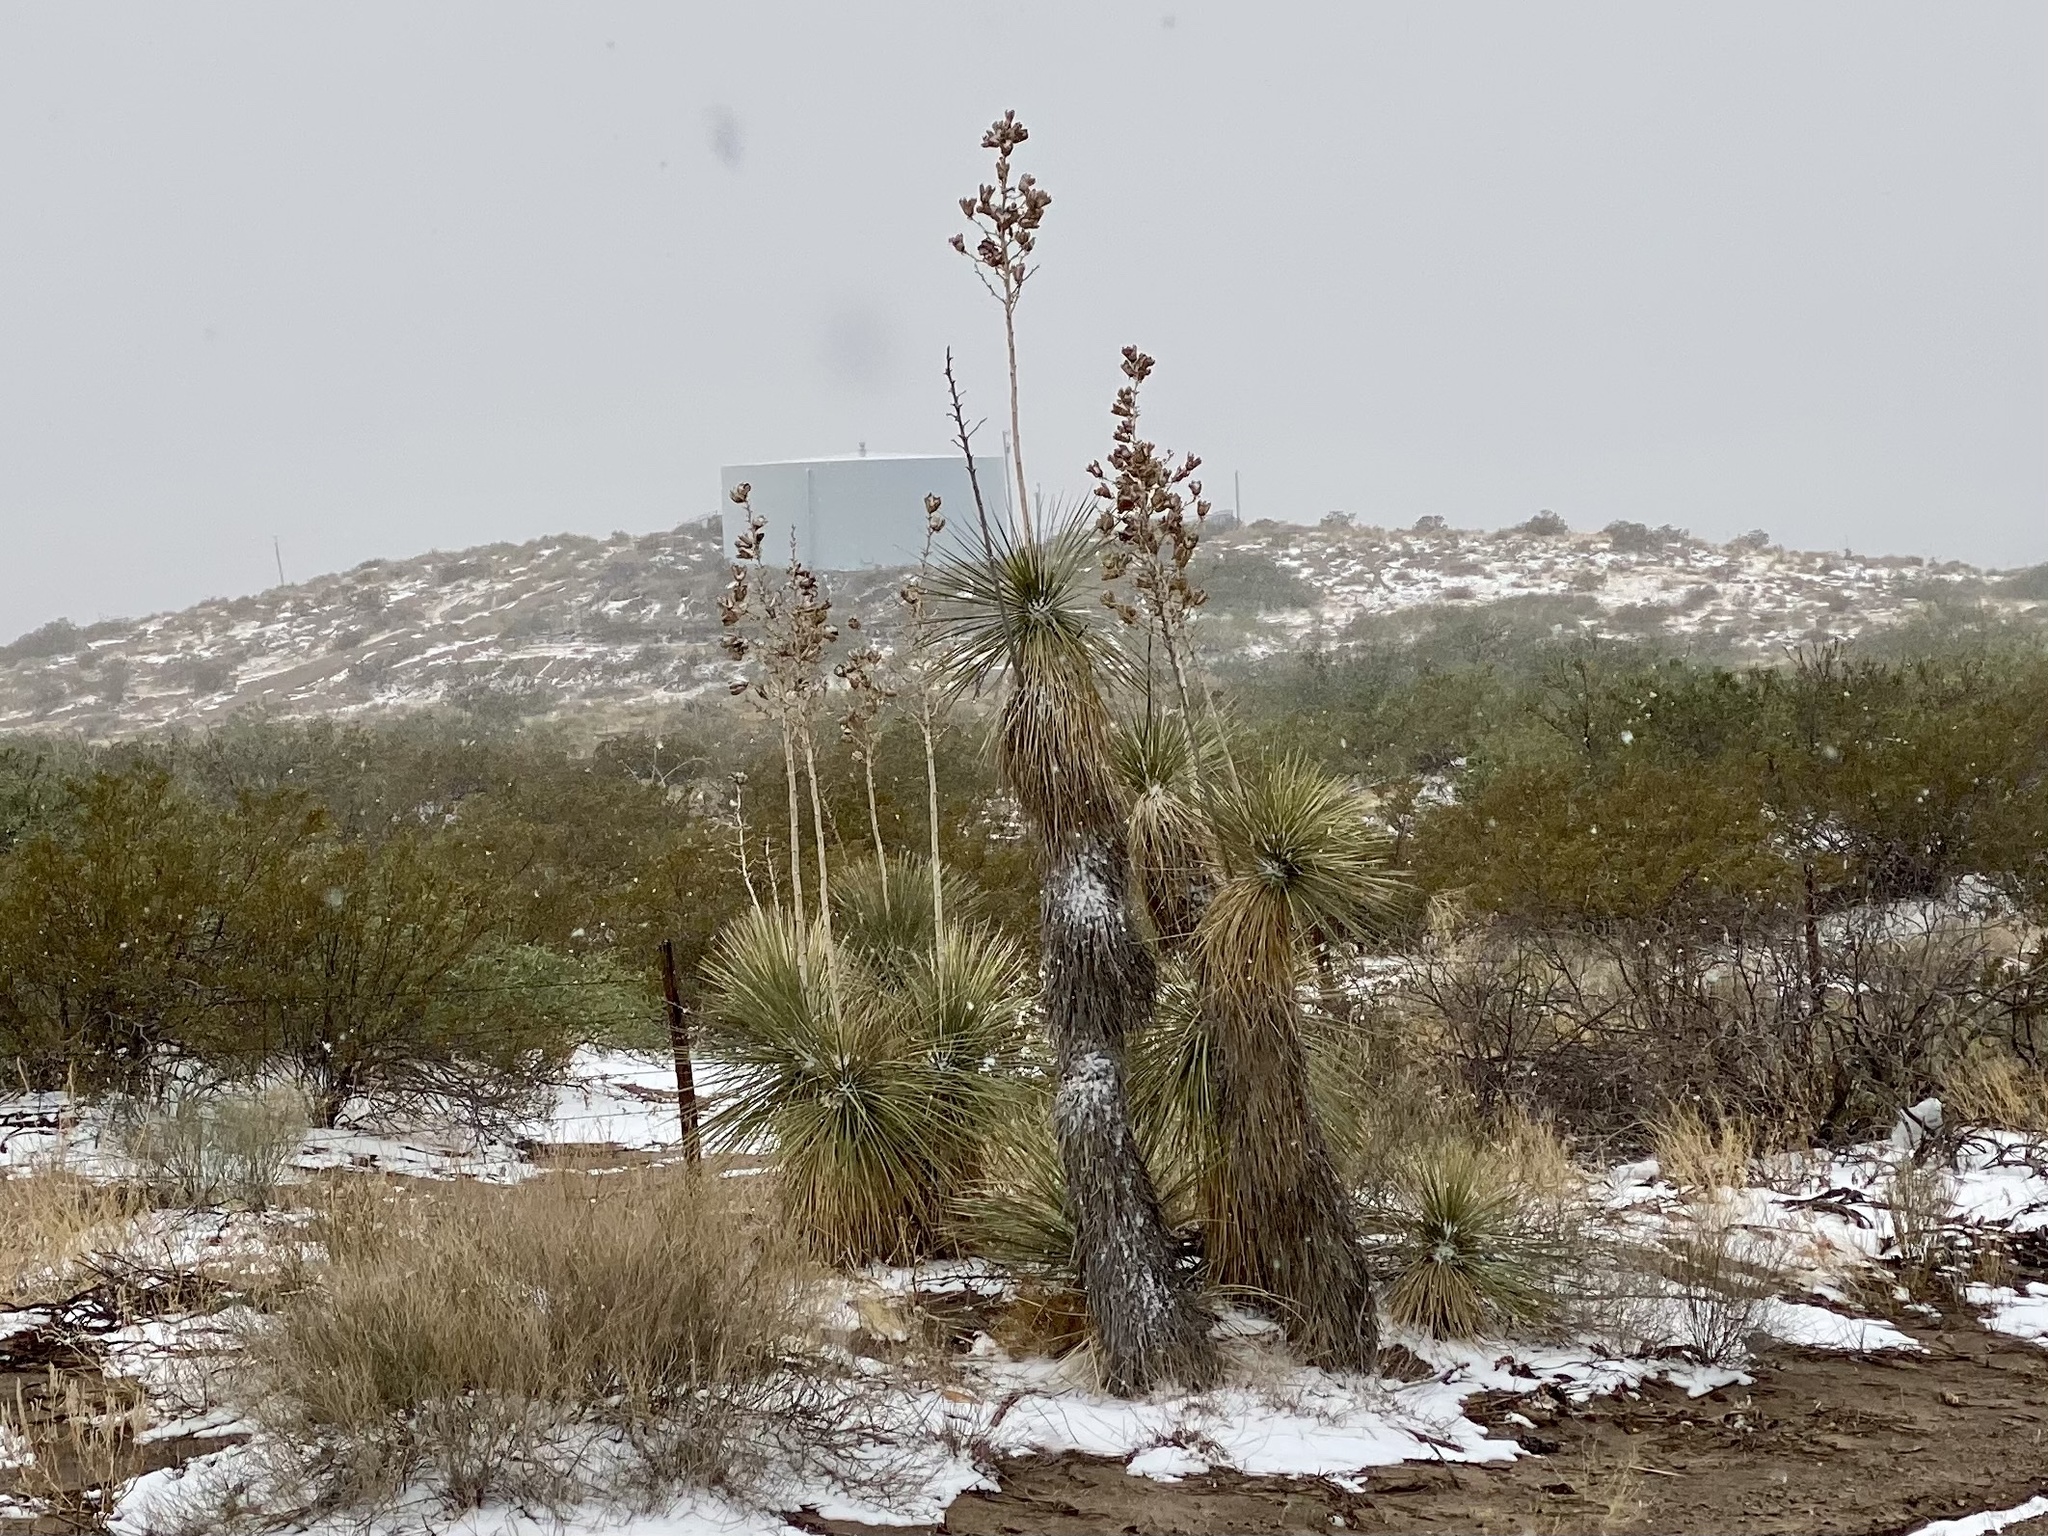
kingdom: Plantae
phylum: Tracheophyta
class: Liliopsida
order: Asparagales
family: Asparagaceae
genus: Yucca
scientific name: Yucca elata
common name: Palmella
